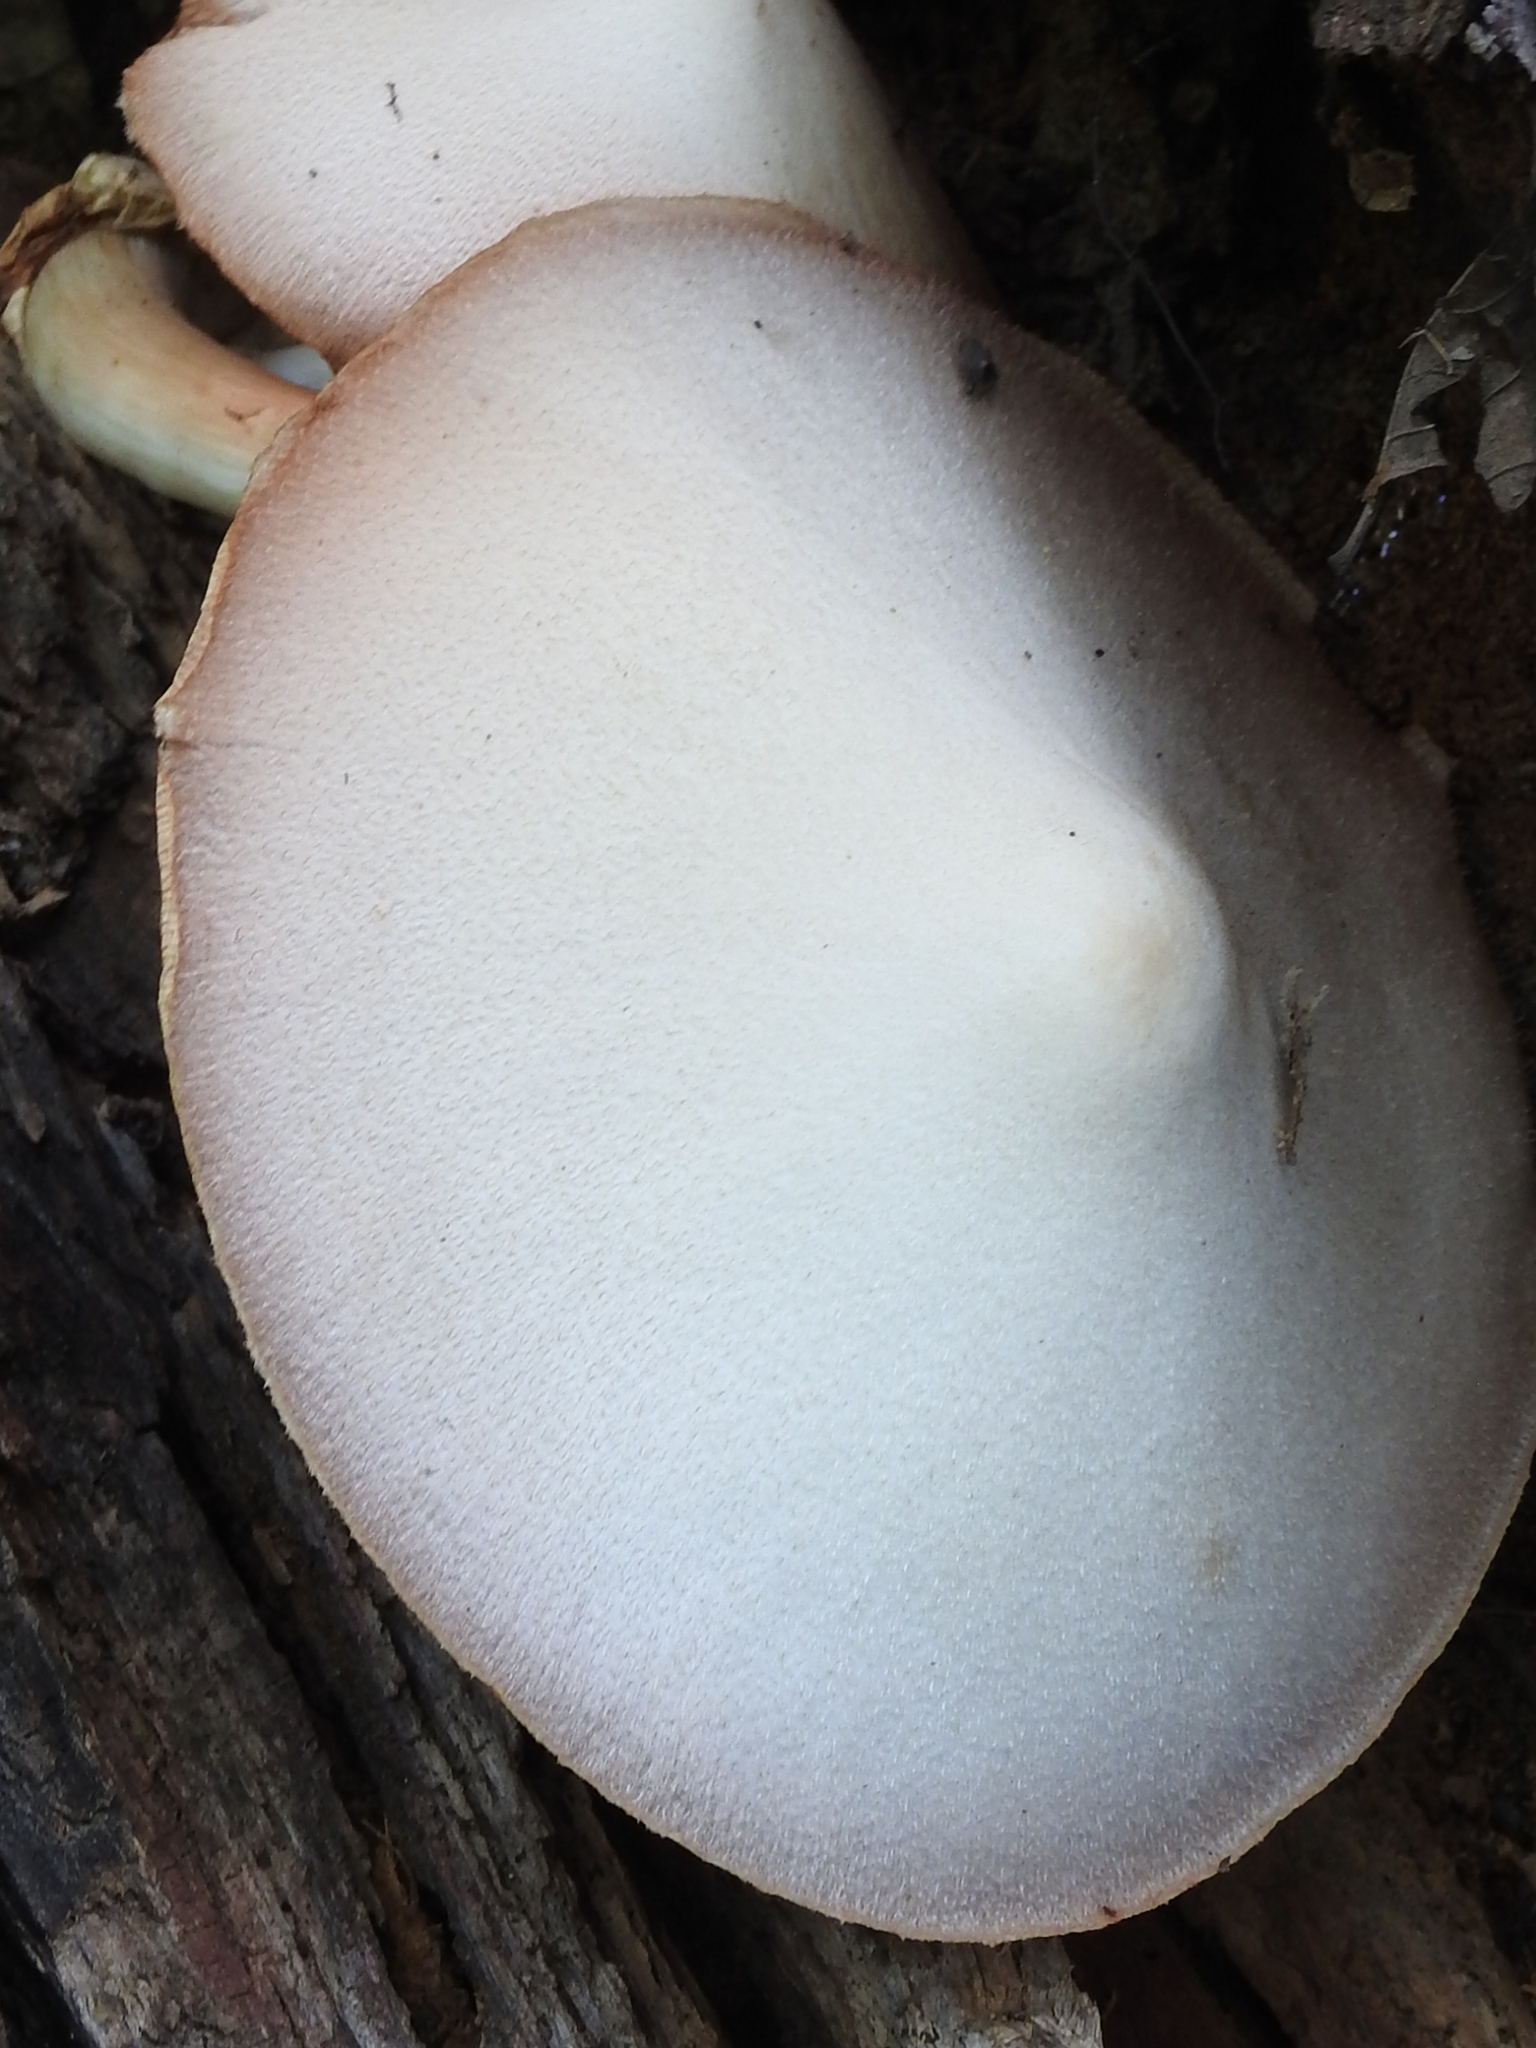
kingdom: Fungi
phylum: Basidiomycota
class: Agaricomycetes
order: Agaricales
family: Pluteaceae
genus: Volvariella
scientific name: Volvariella bombycina
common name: Silky rosegill
